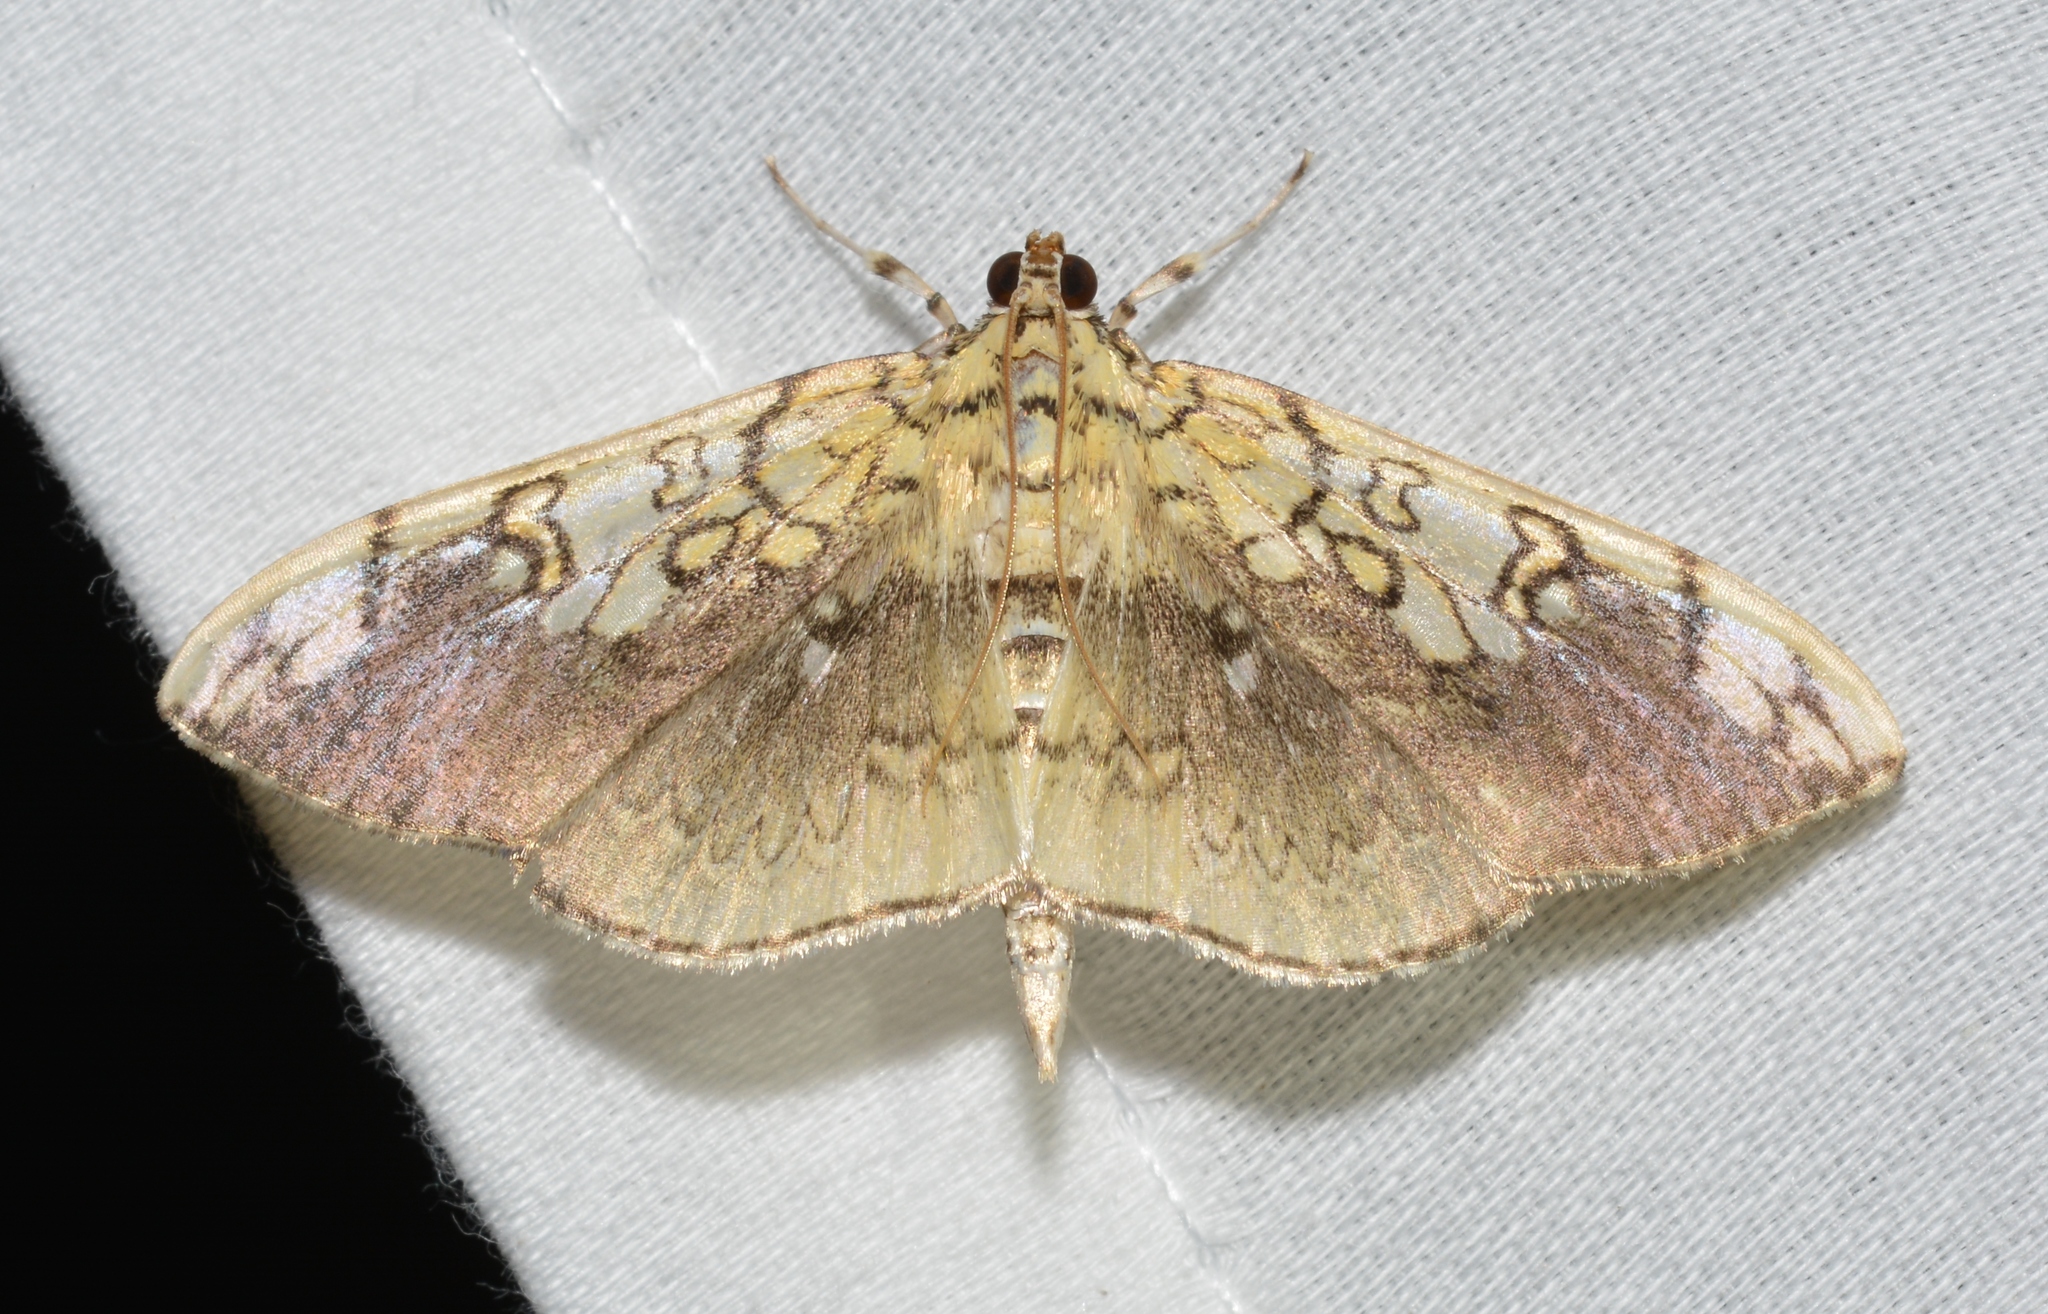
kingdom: Animalia
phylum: Arthropoda
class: Insecta
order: Lepidoptera
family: Crambidae
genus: Pantographa
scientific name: Pantographa limata
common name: Basswood leafroller moth
